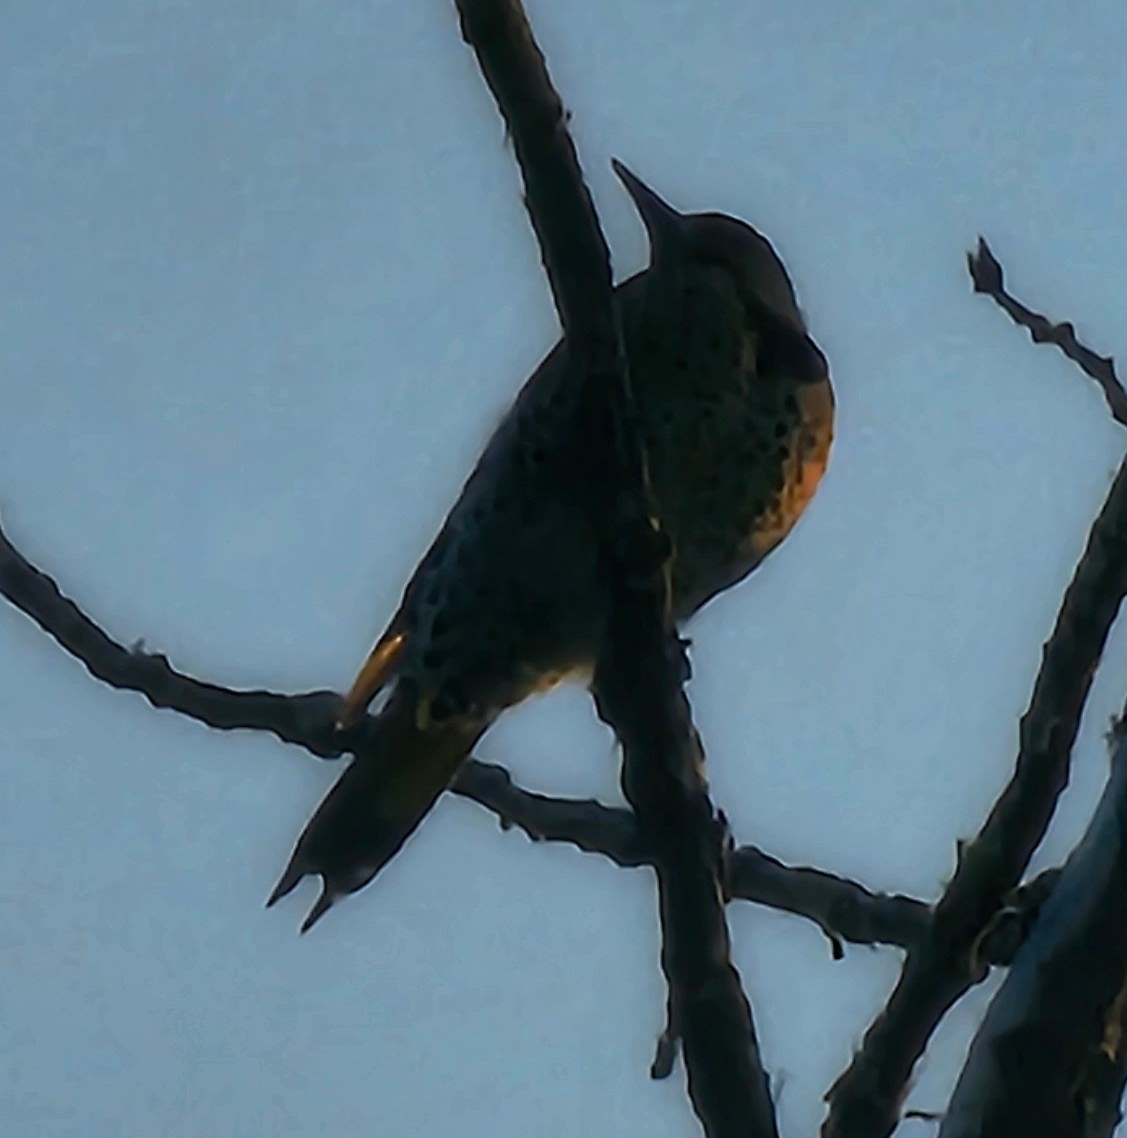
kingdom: Animalia
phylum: Chordata
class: Aves
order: Piciformes
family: Picidae
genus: Colaptes
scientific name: Colaptes auratus
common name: Northern flicker
